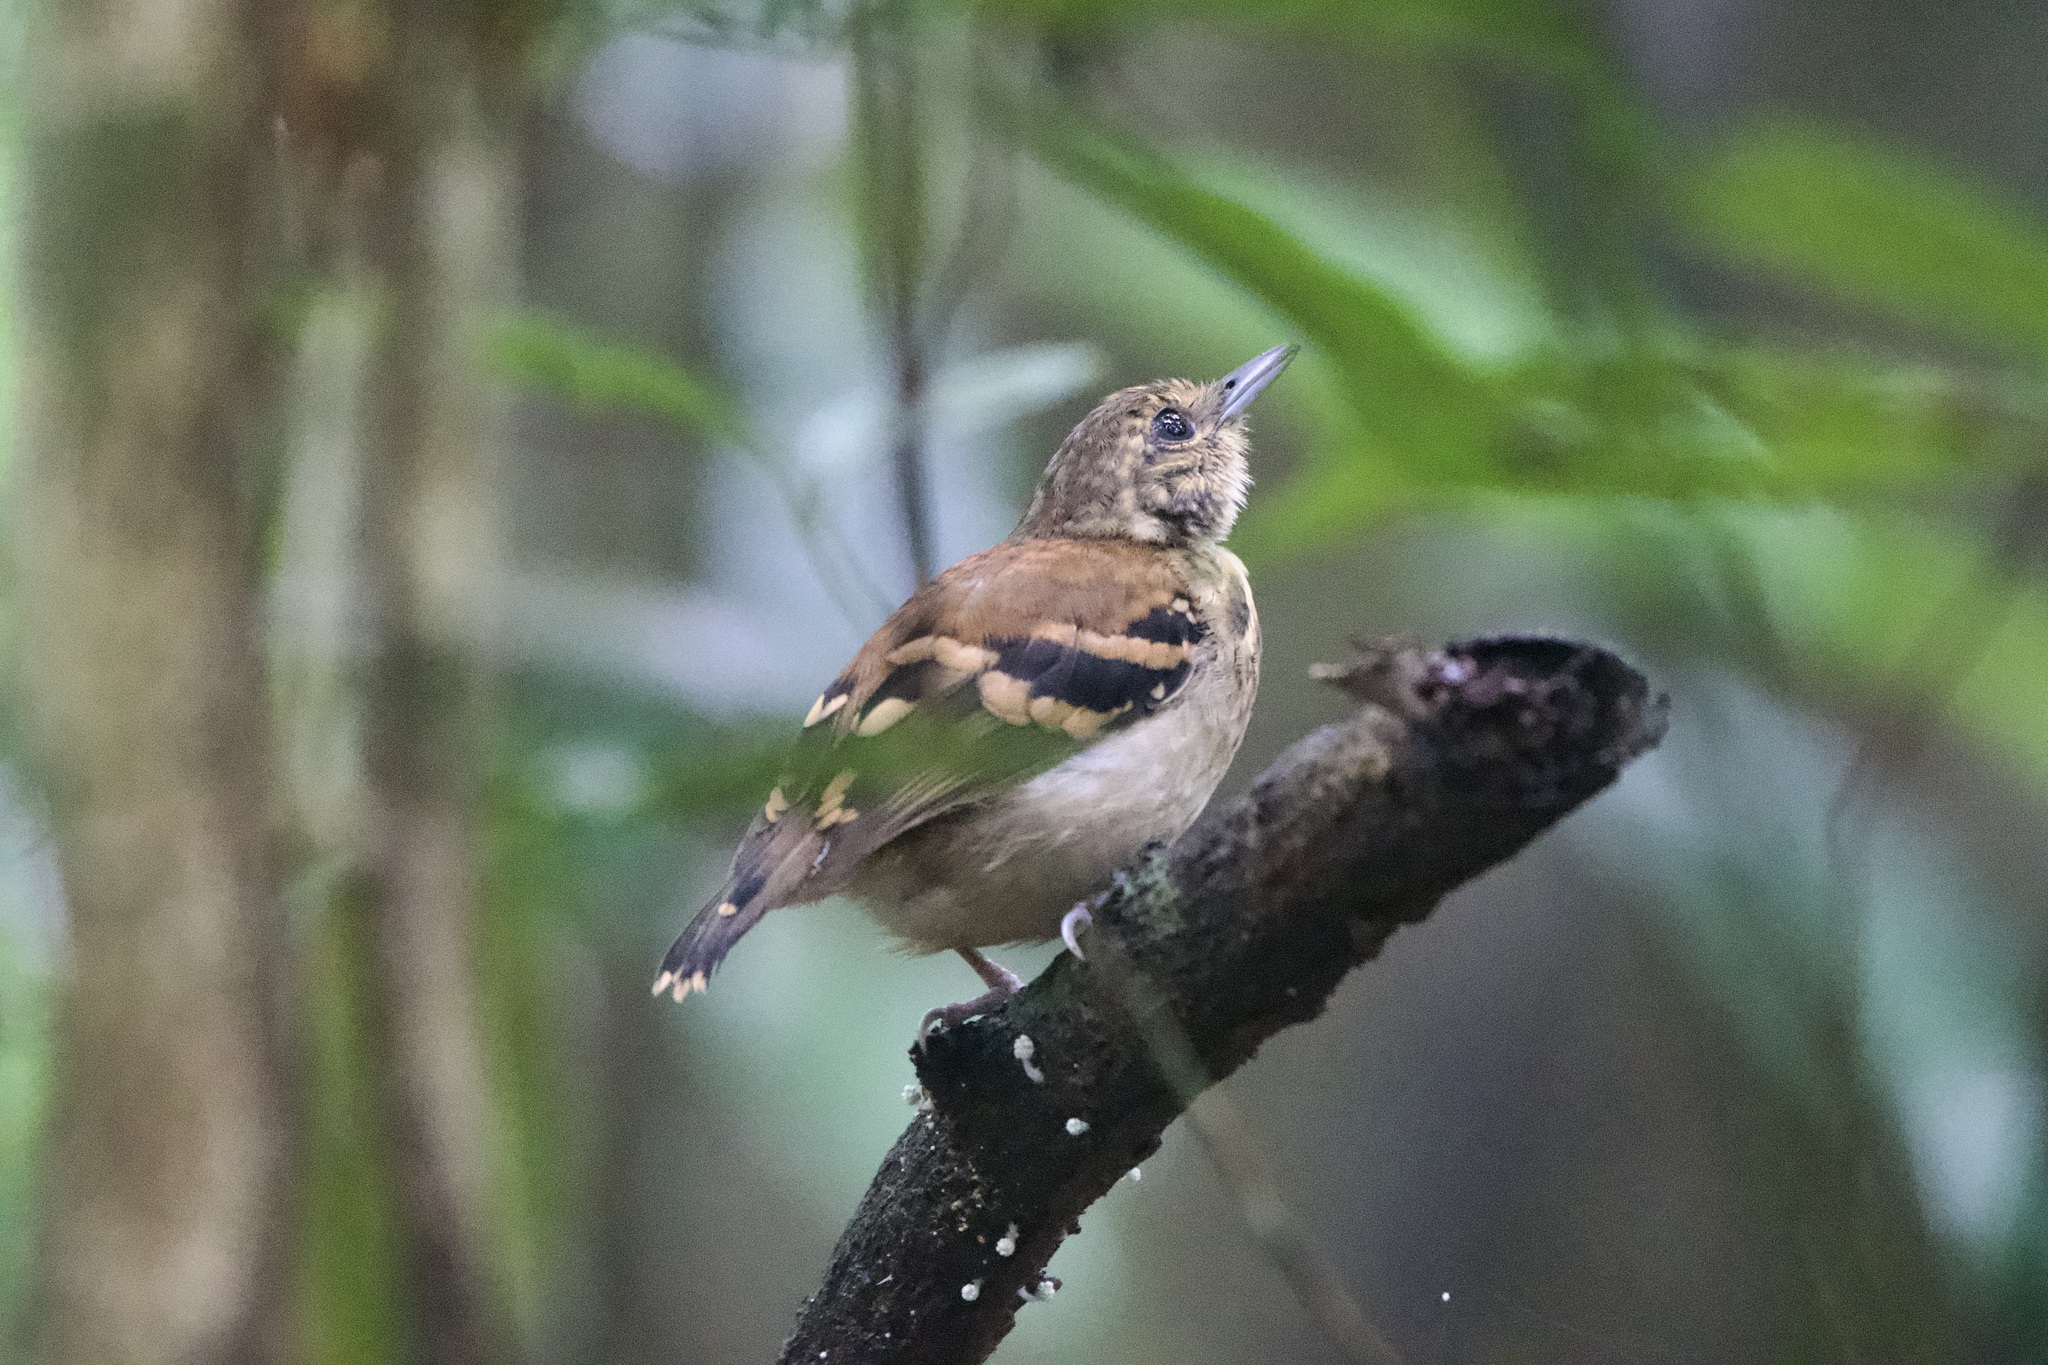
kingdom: Animalia
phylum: Chordata
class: Aves
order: Passeriformes
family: Thamnophilidae
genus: Hylophylax
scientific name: Hylophylax naevioides
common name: Spotted antbird
